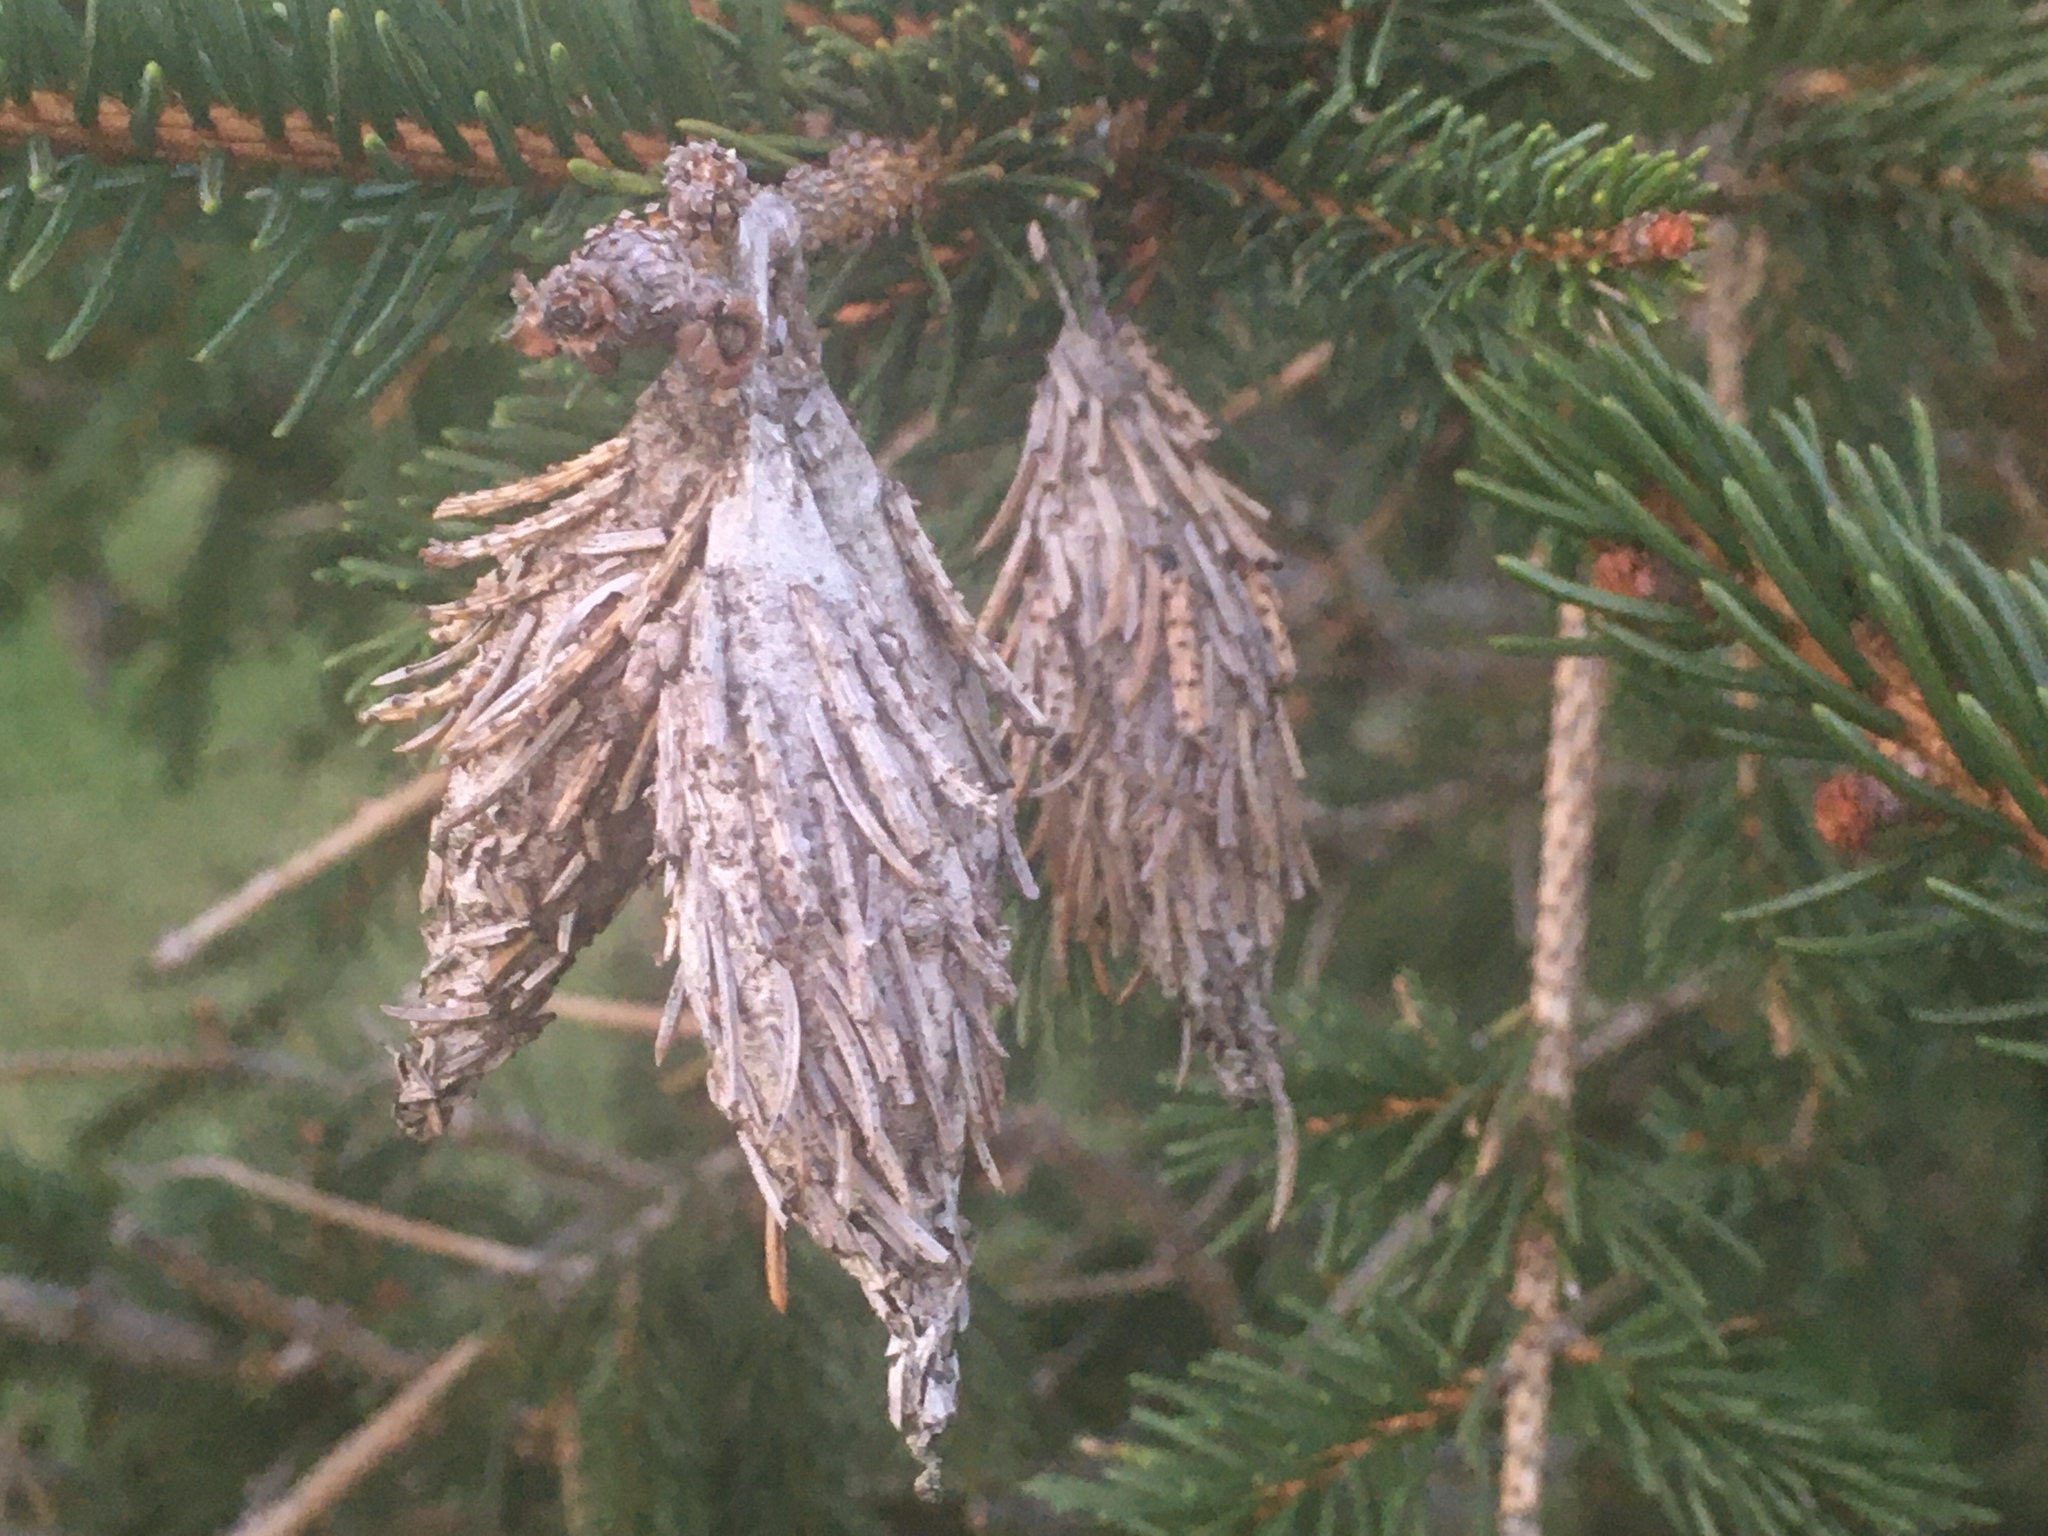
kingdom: Animalia
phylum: Arthropoda
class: Insecta
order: Lepidoptera
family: Psychidae
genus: Thyridopteryx
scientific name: Thyridopteryx ephemeraeformis
